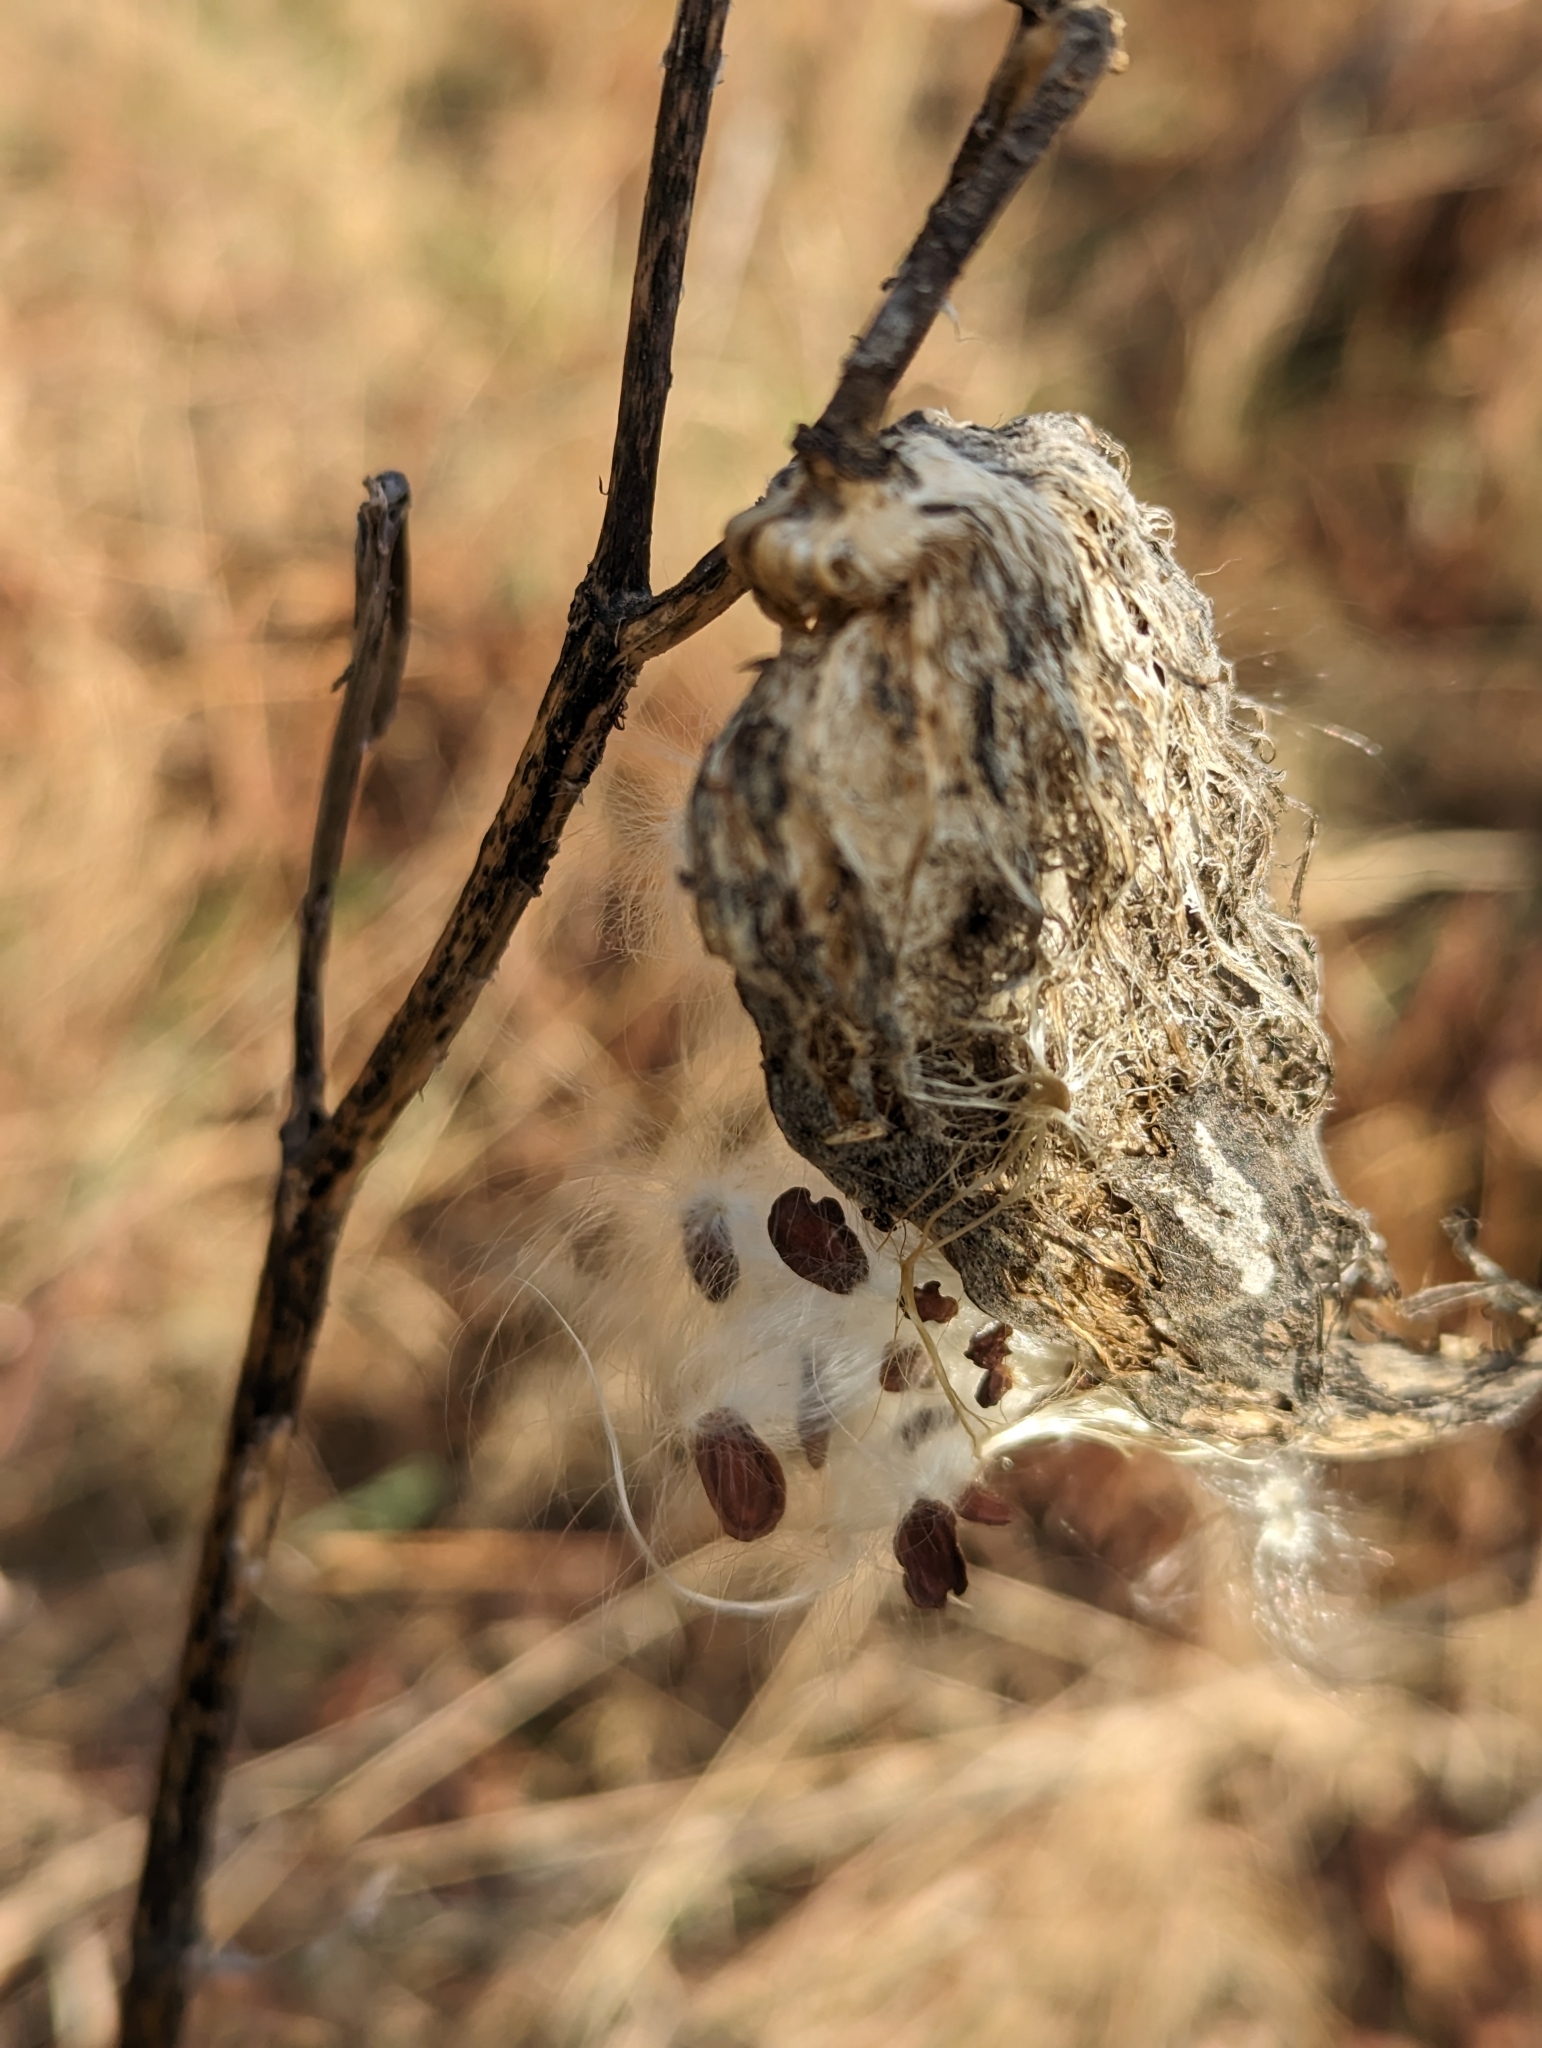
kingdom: Plantae
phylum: Tracheophyta
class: Magnoliopsida
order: Gentianales
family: Apocynaceae
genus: Asclepias
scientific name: Asclepias syriaca
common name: Common milkweed
